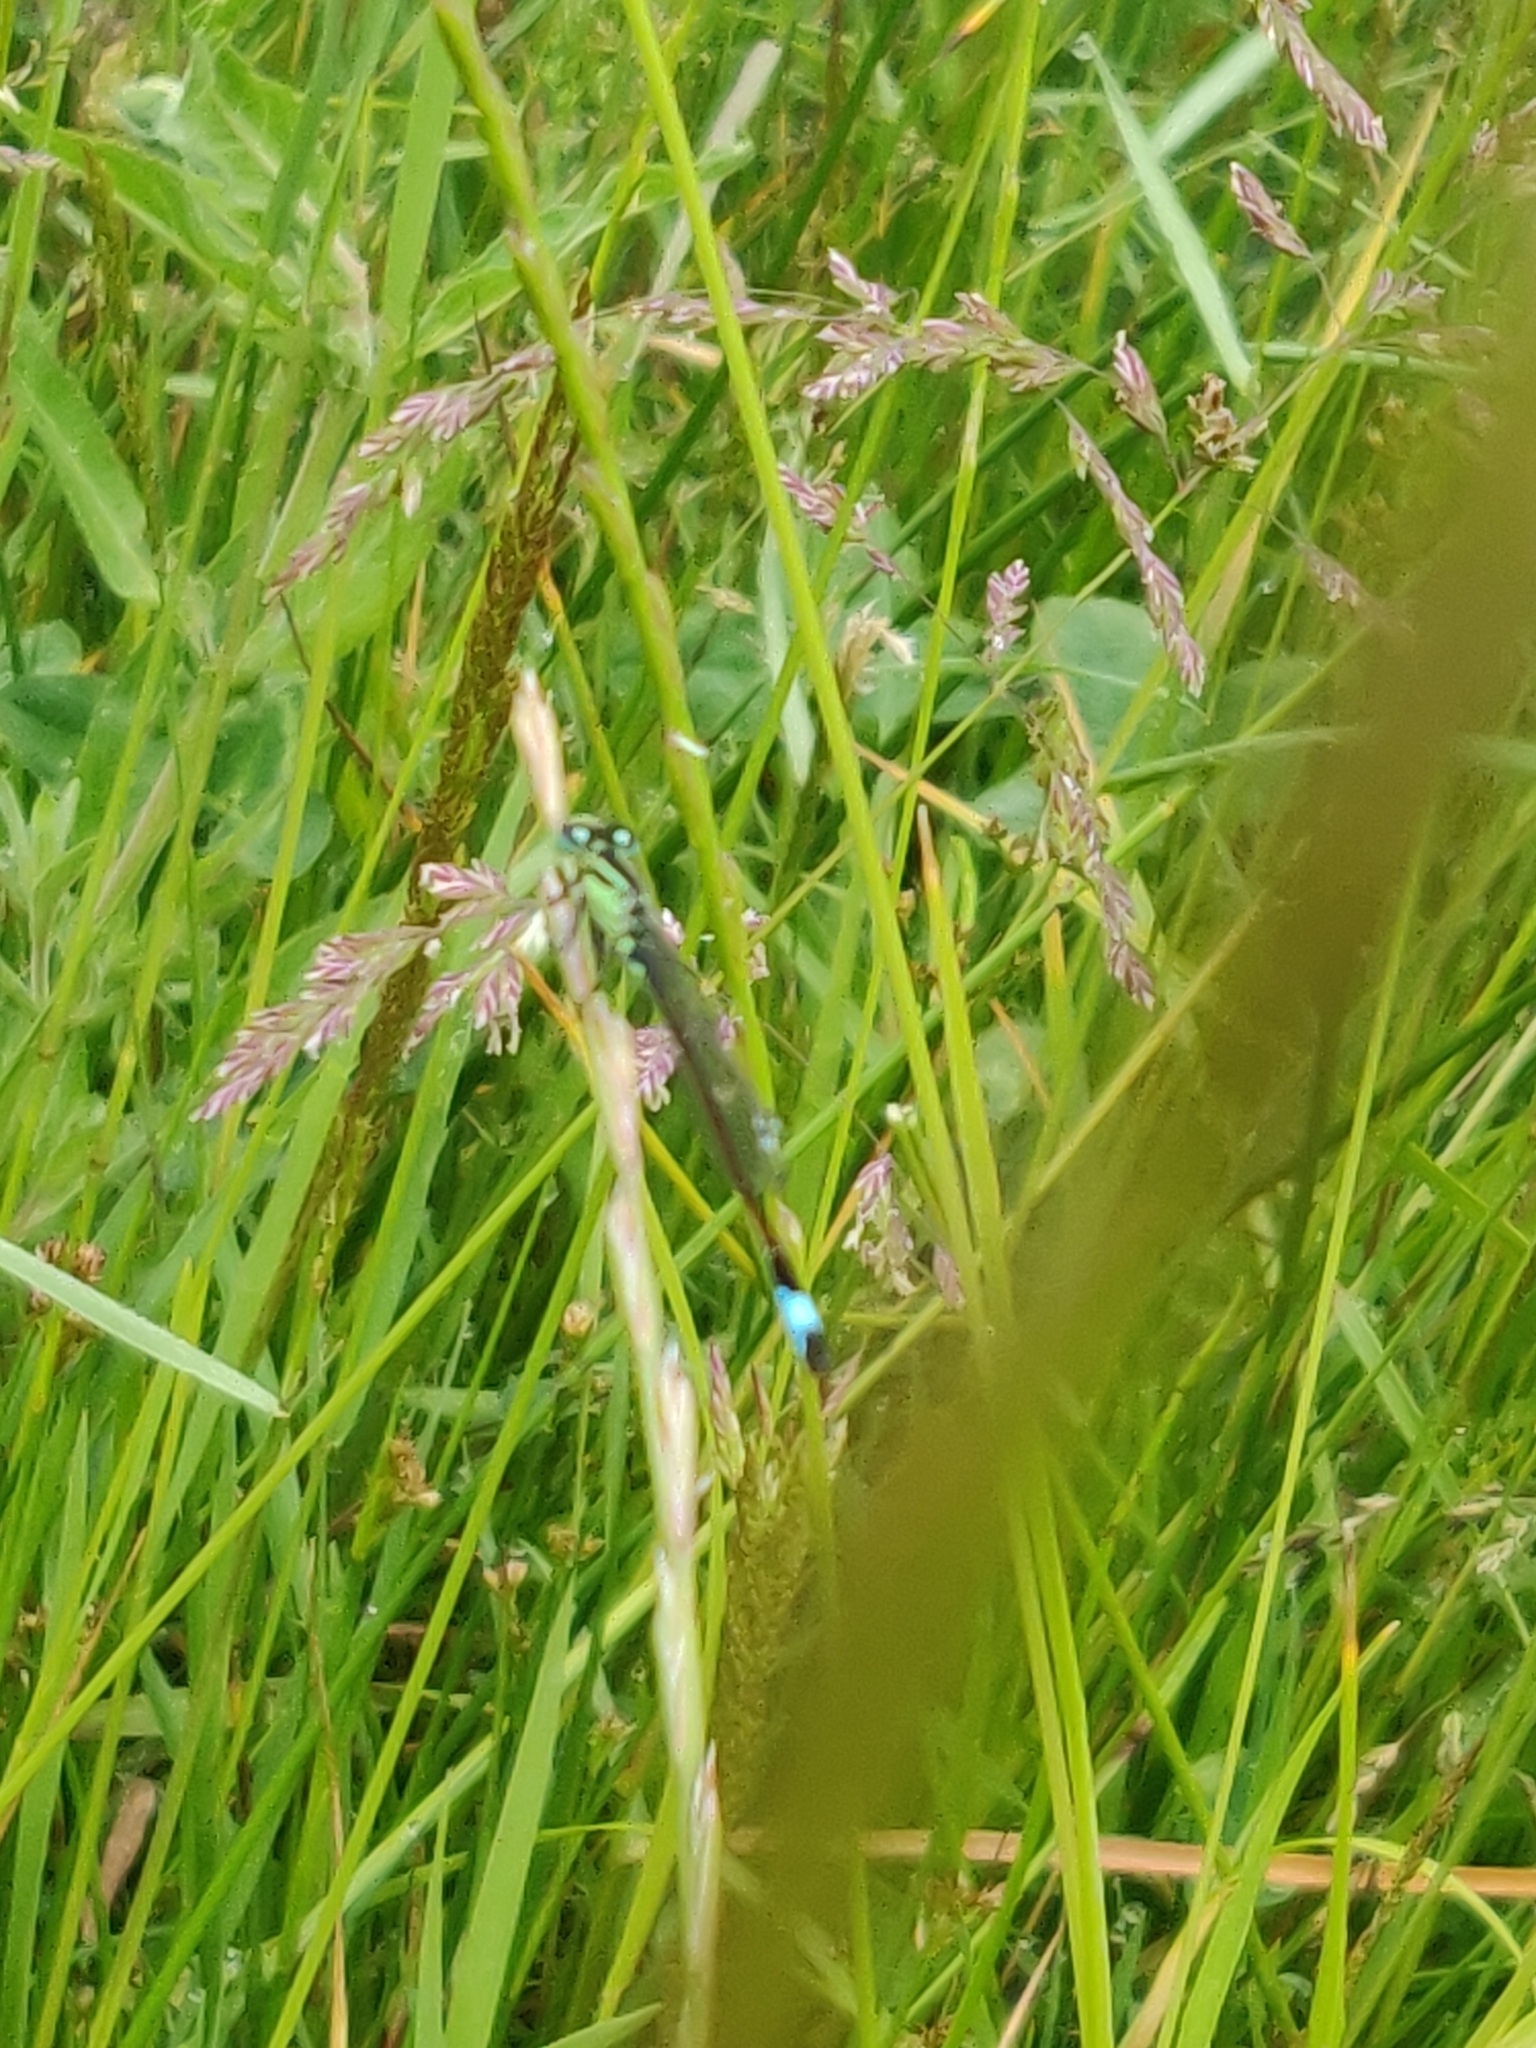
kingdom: Animalia
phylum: Arthropoda
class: Insecta
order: Odonata
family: Coenagrionidae
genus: Ischnura
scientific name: Ischnura elegans
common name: Blue-tailed damselfly
